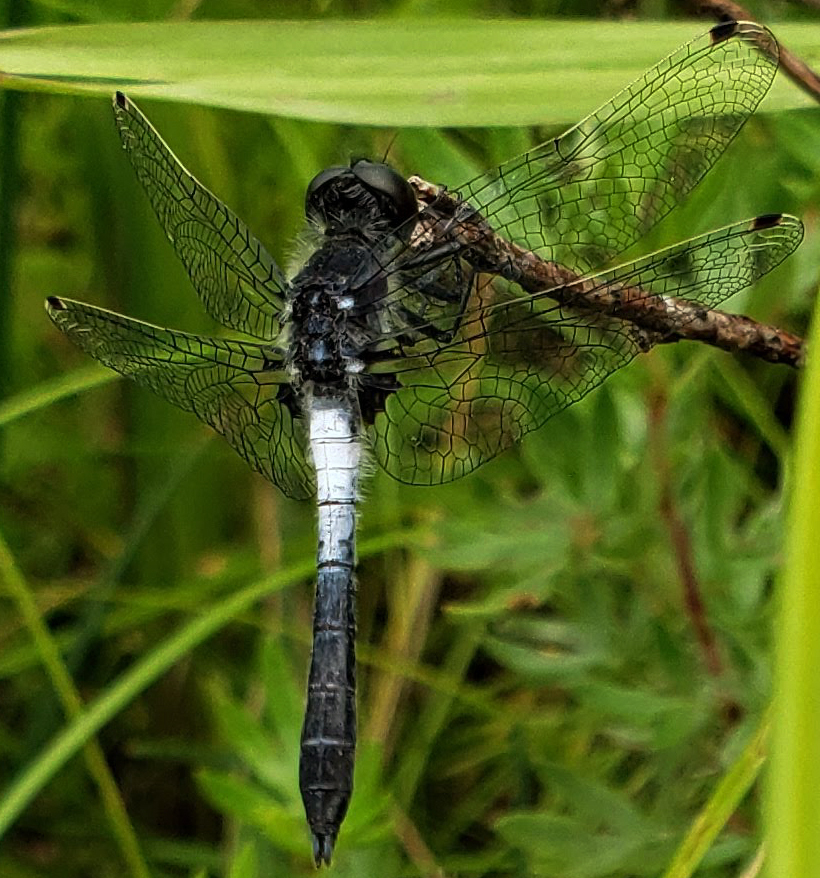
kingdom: Animalia
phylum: Arthropoda
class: Insecta
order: Odonata
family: Libellulidae
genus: Leucorrhinia
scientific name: Leucorrhinia frigida
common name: Frosted whiteface
